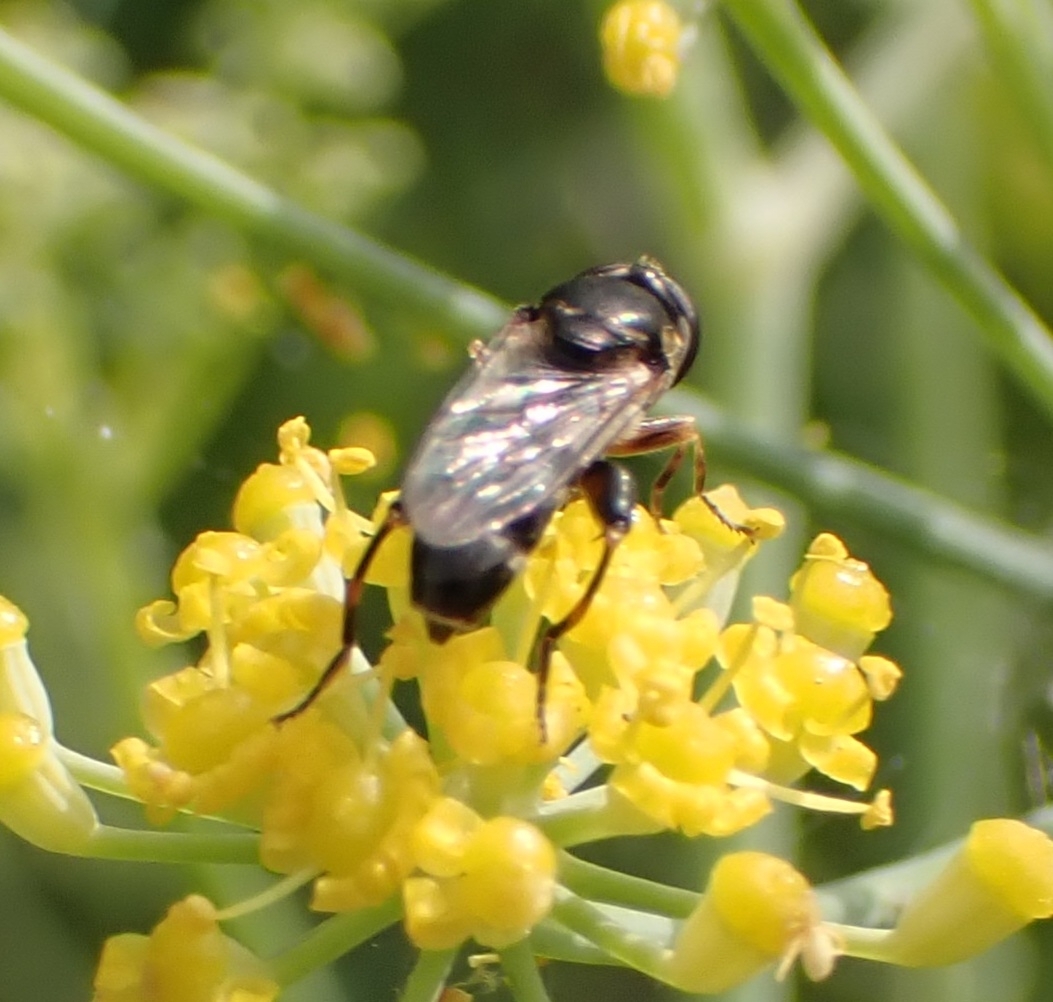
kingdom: Animalia
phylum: Arthropoda
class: Insecta
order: Diptera
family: Syrphidae
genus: Syritta
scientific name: Syritta pipiens
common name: Hover fly
